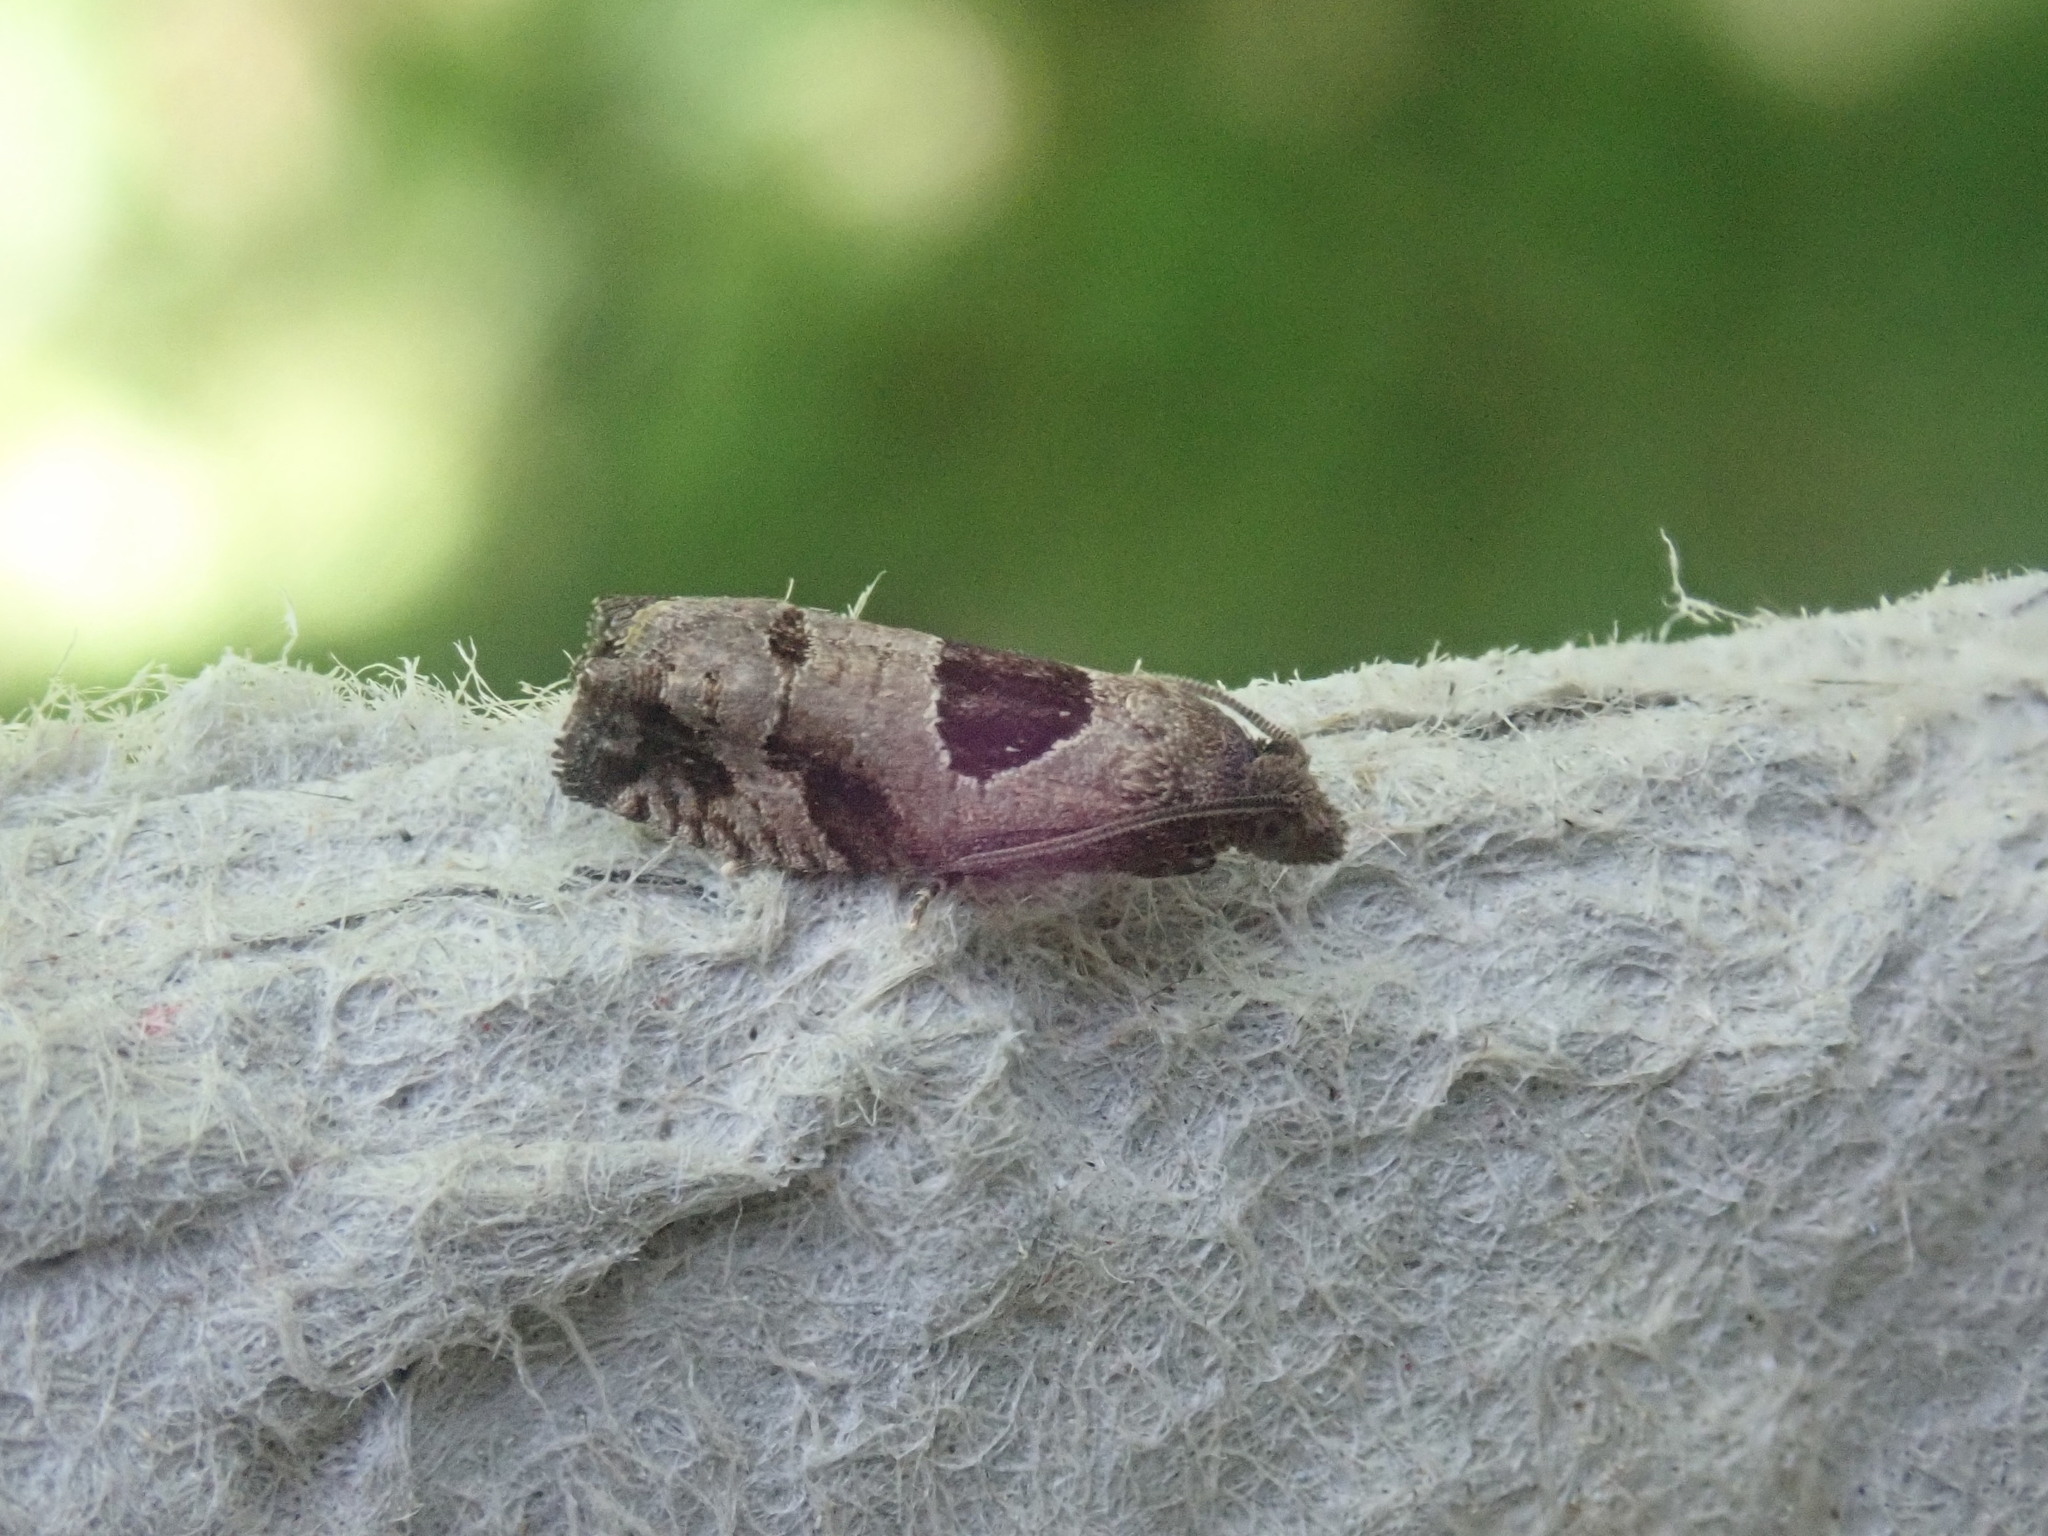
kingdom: Animalia
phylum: Arthropoda
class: Insecta
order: Lepidoptera
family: Tortricidae
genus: Epiblema
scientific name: Epiblema brightonana
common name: Brighton's epiblema moth
